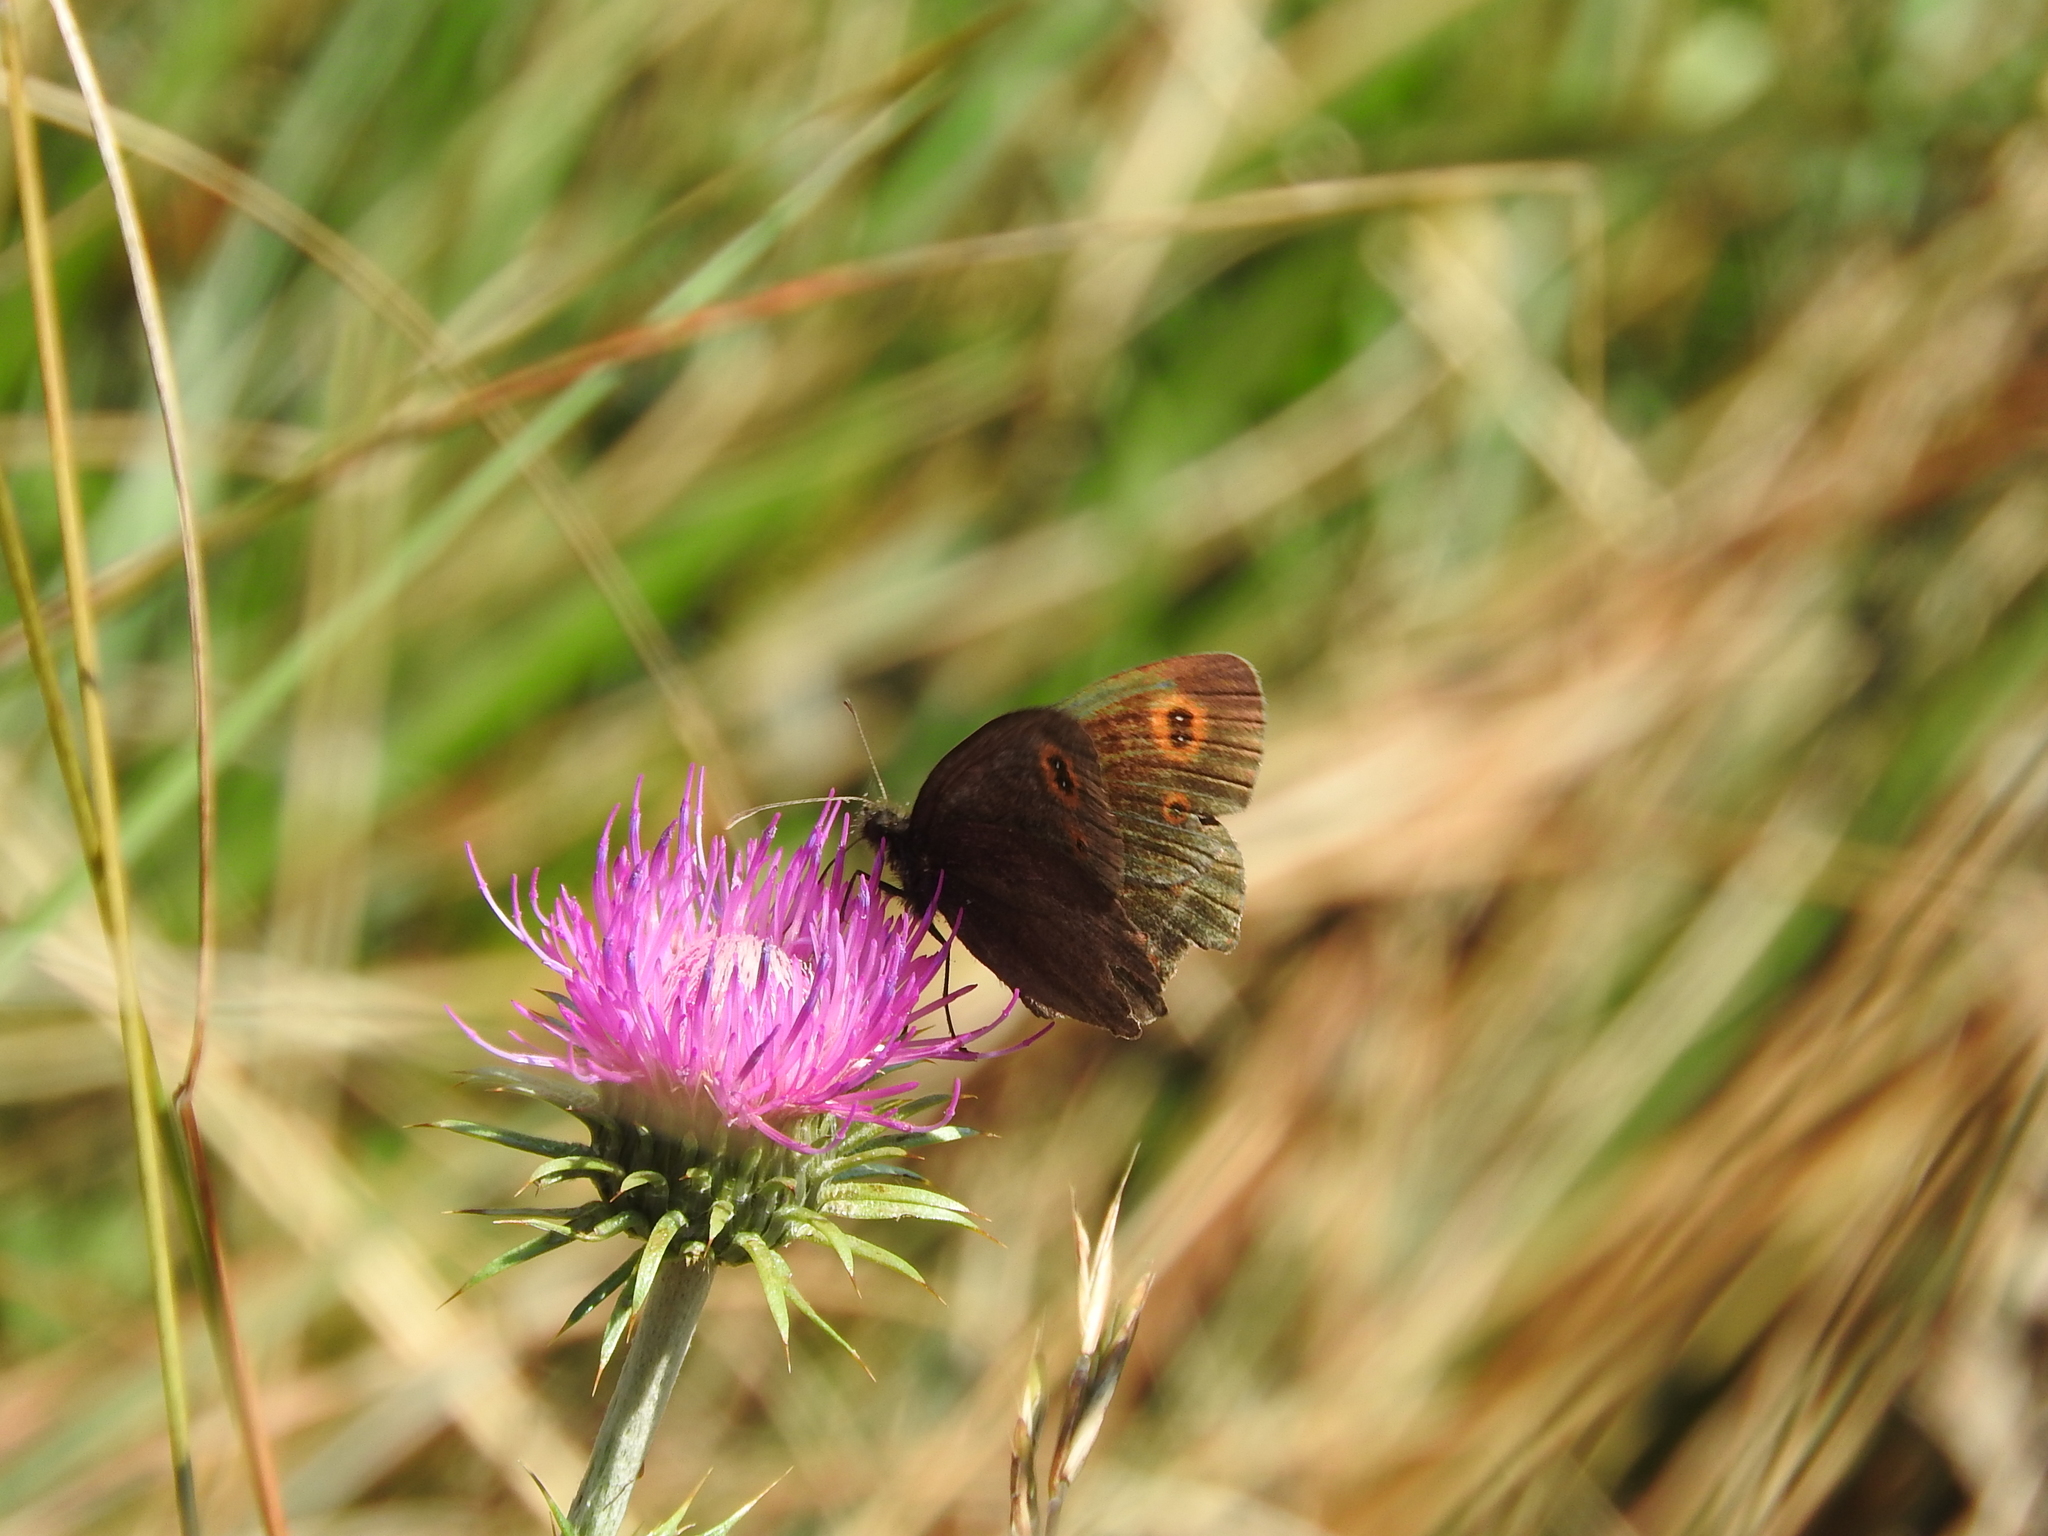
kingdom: Animalia
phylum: Arthropoda
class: Insecta
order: Lepidoptera
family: Nymphalidae
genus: Erebia
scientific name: Erebia aethiops
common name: Scotch argus
